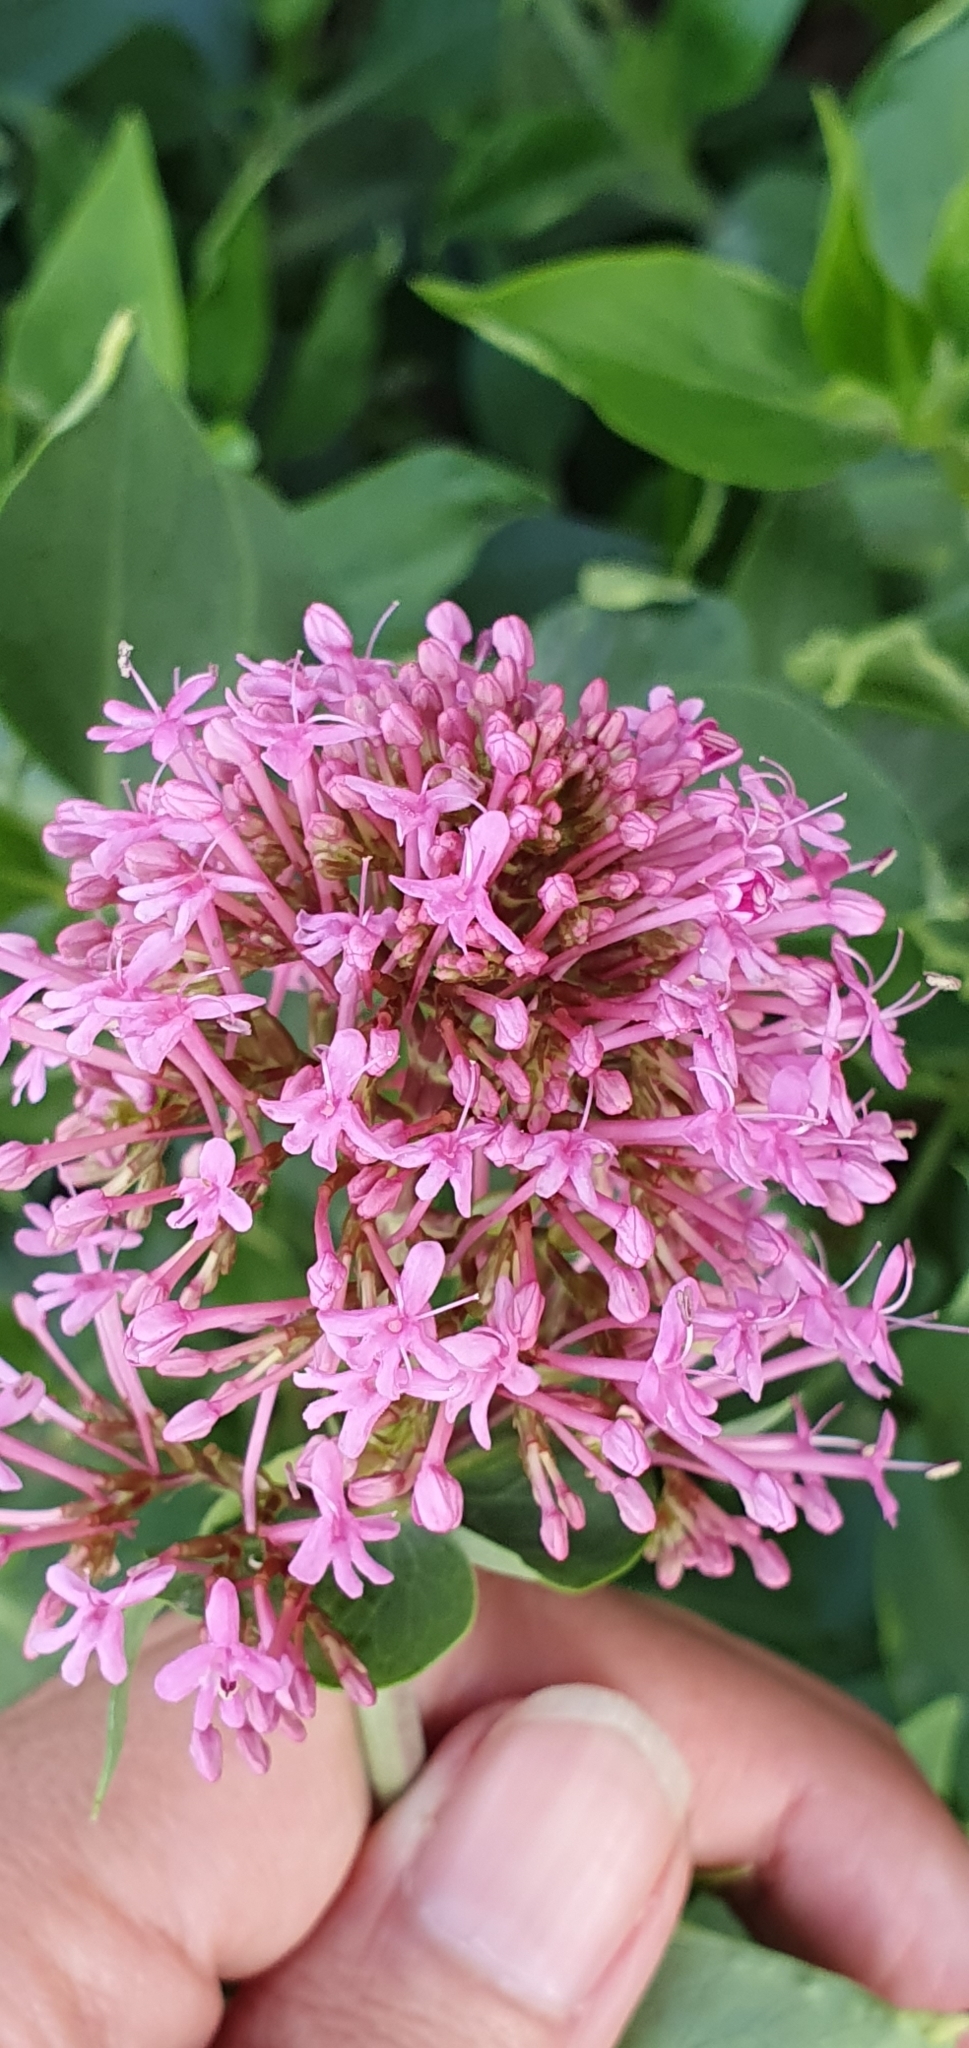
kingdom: Plantae
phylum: Tracheophyta
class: Magnoliopsida
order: Dipsacales
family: Caprifoliaceae
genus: Centranthus
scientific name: Centranthus ruber
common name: Red valerian
